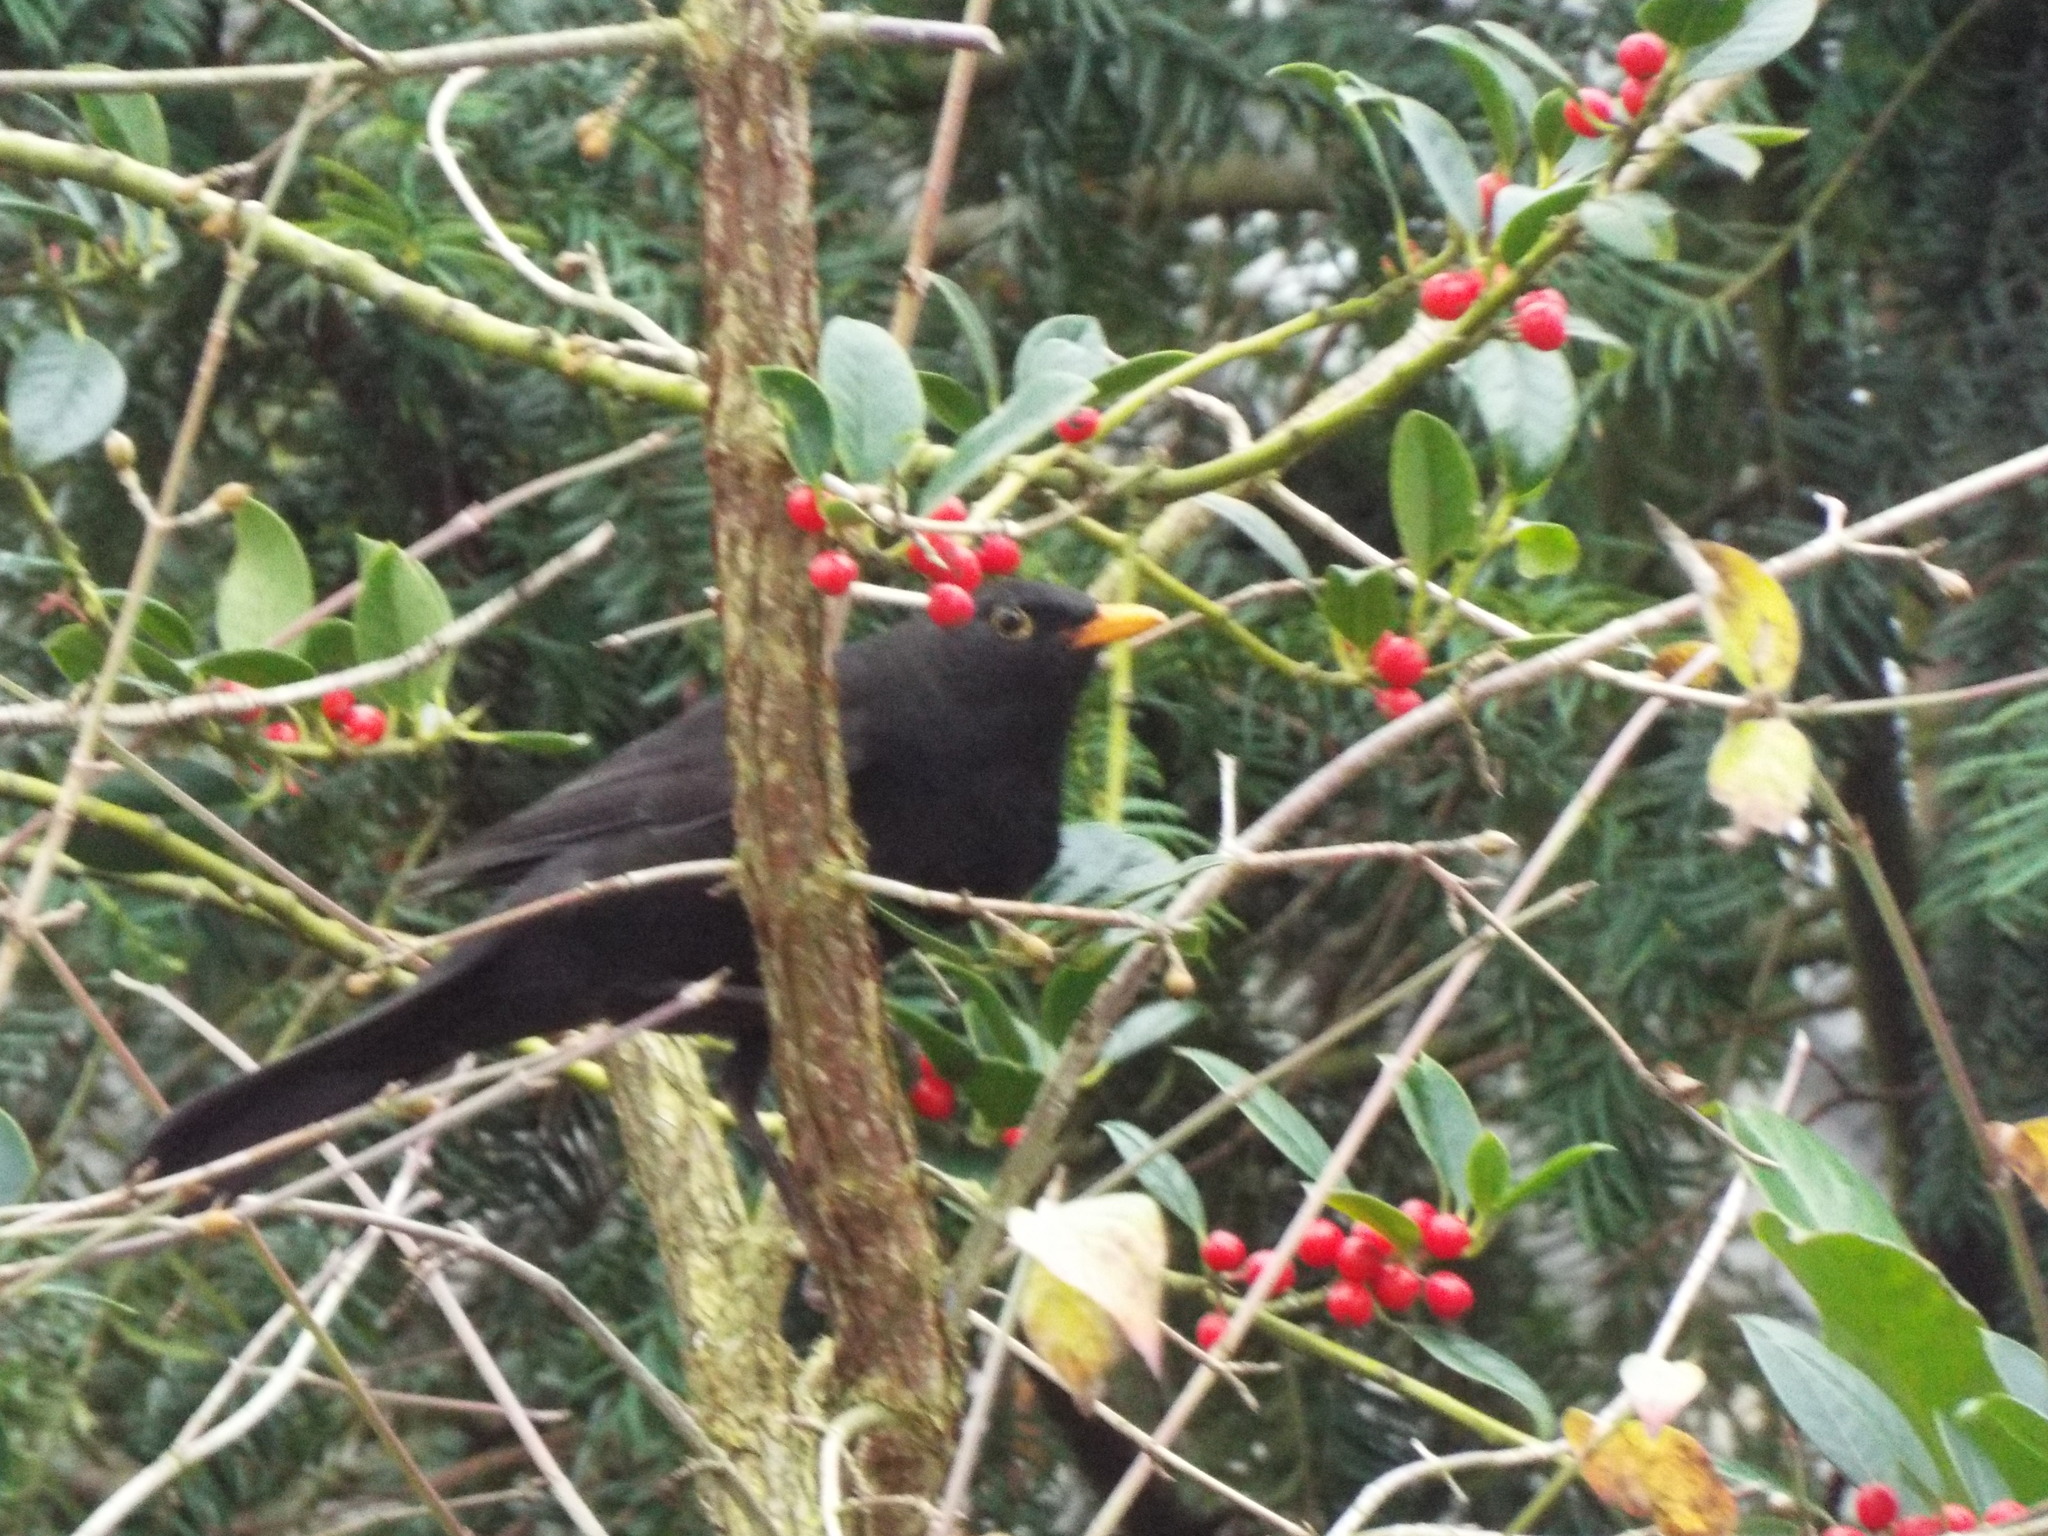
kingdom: Animalia
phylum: Chordata
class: Aves
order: Passeriformes
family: Turdidae
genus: Turdus
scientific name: Turdus merula
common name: Common blackbird
